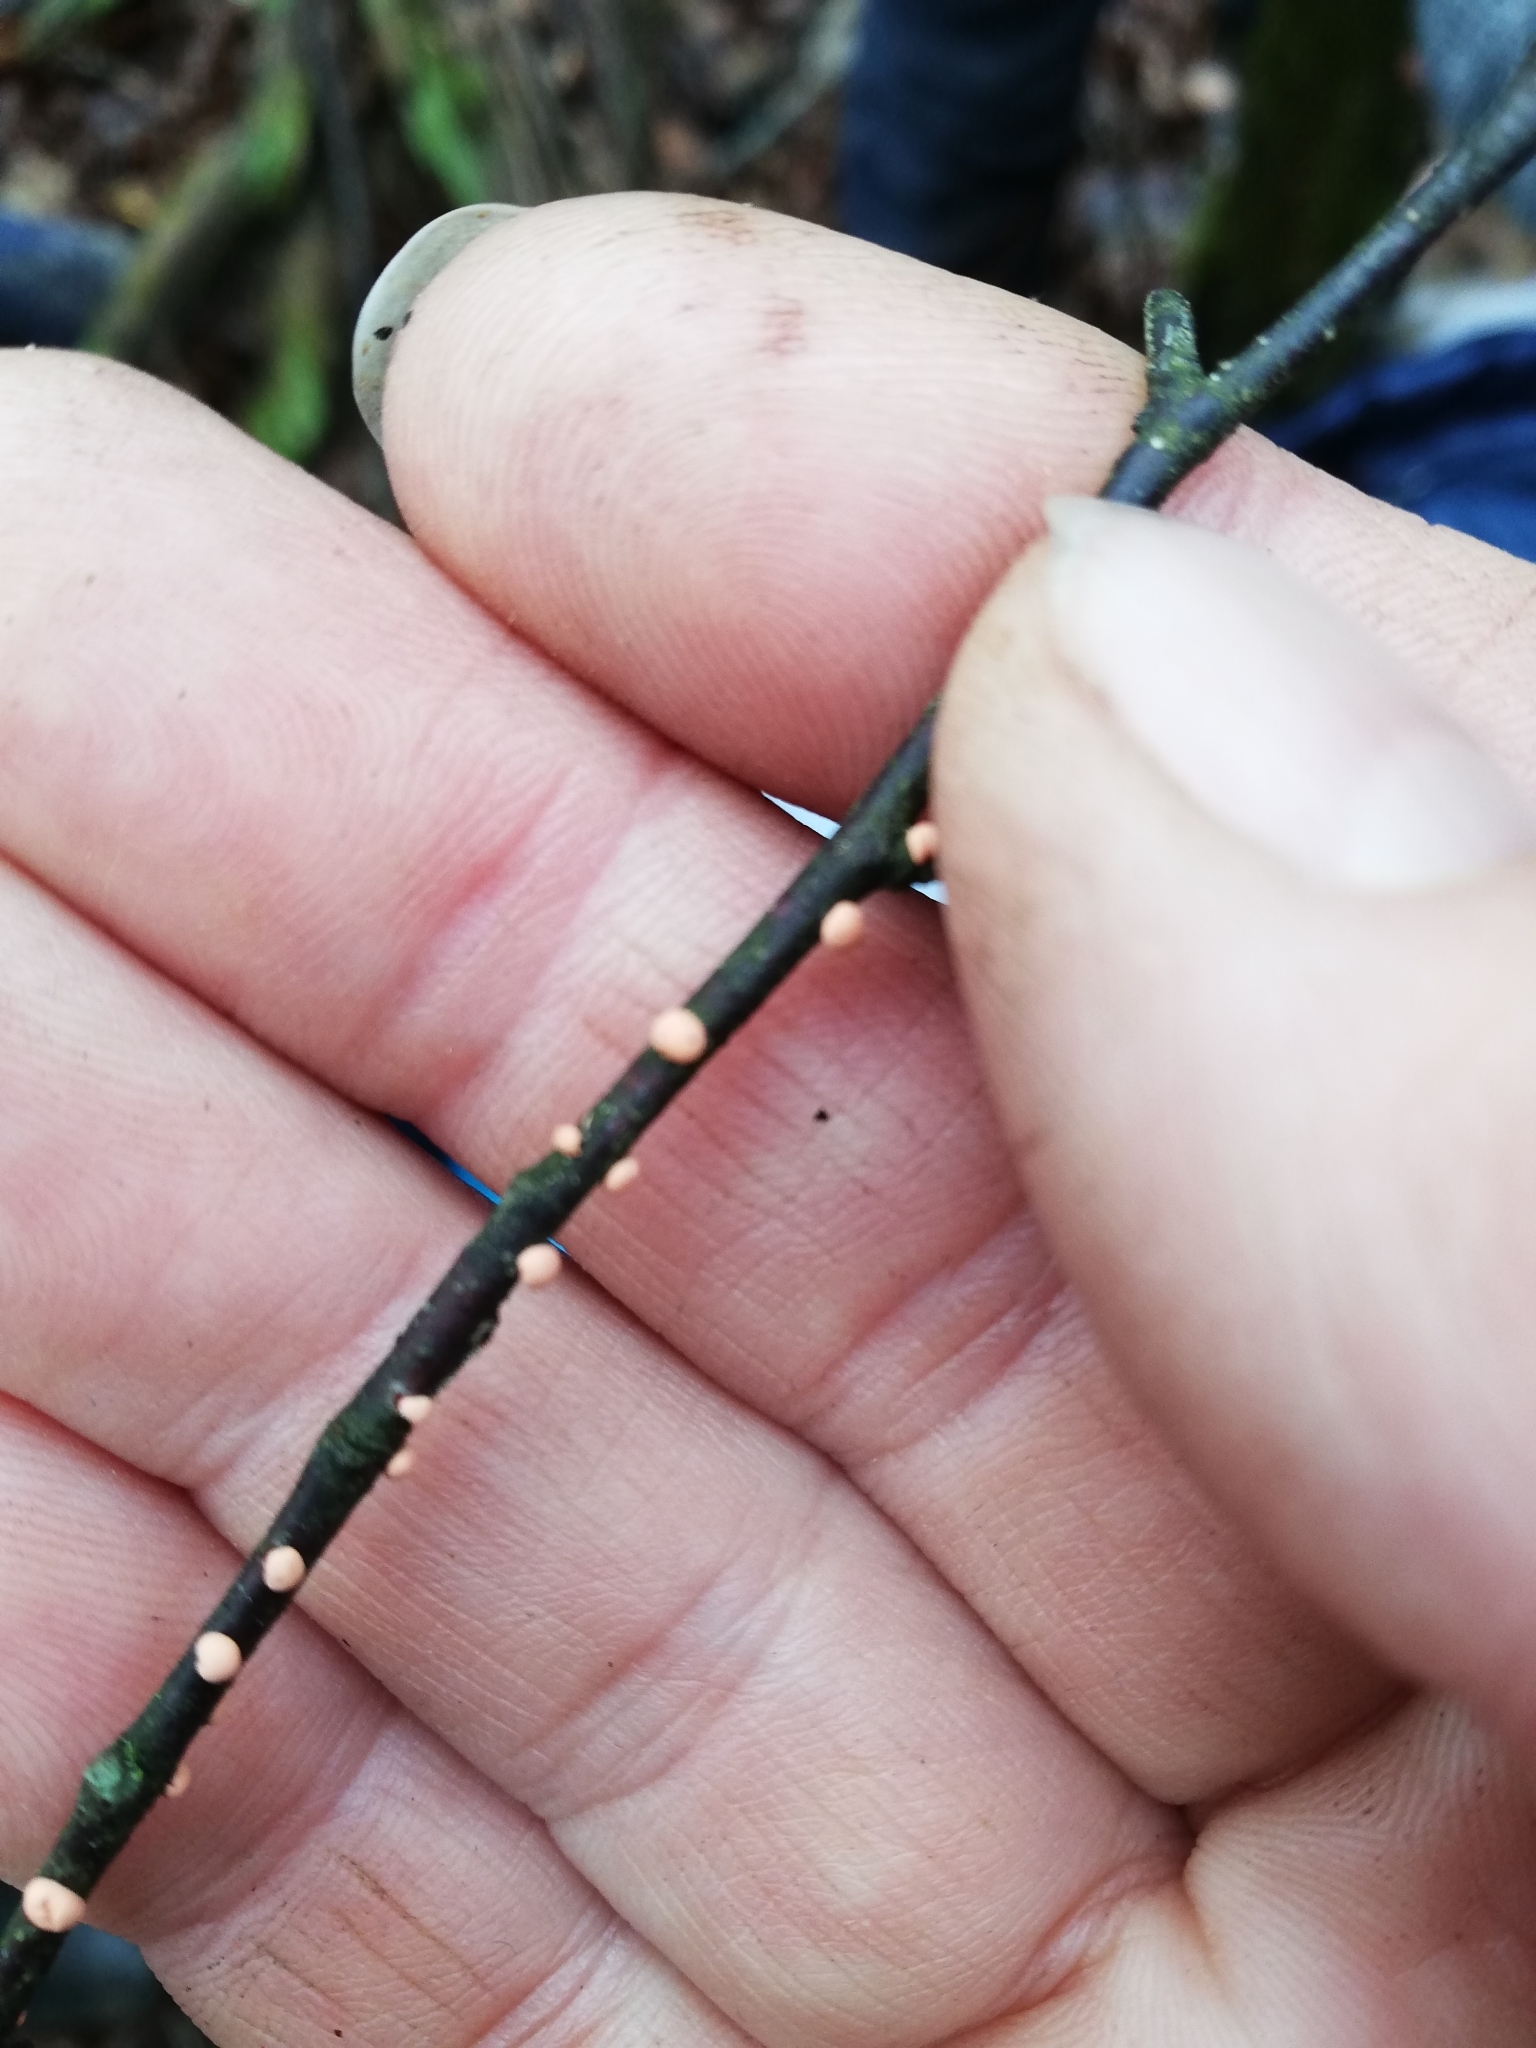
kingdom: Fungi
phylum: Ascomycota
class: Sordariomycetes
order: Hypocreales
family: Nectriaceae
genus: Nectria
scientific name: Nectria cinnabarina
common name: Coral spot
